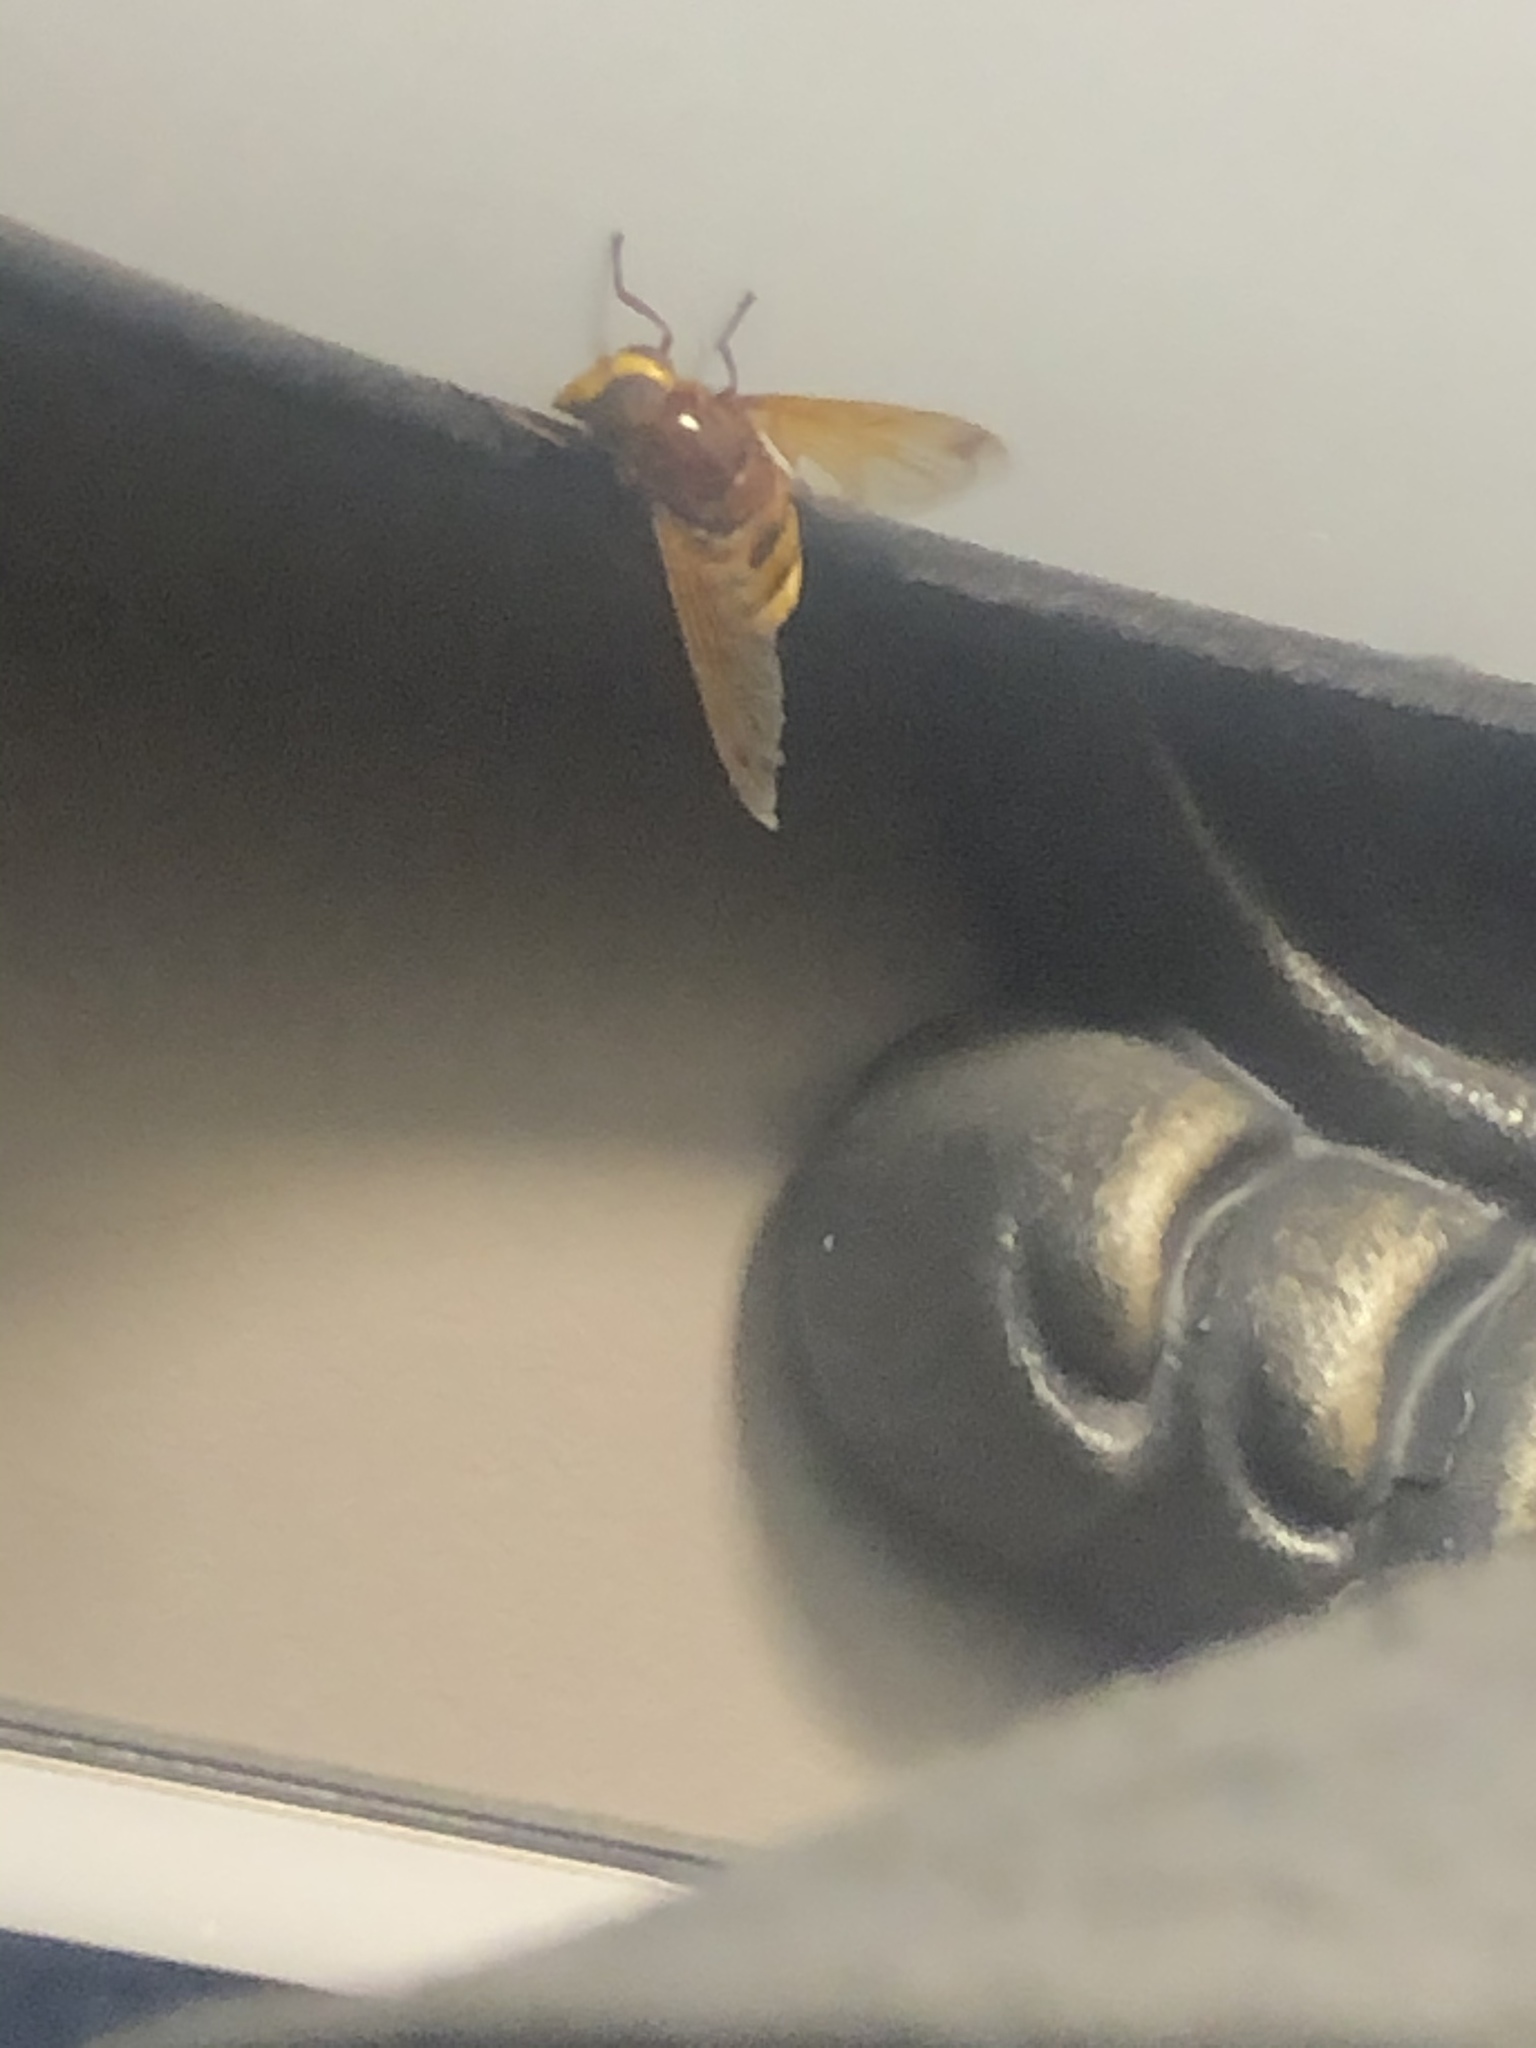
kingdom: Animalia
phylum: Arthropoda
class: Insecta
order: Diptera
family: Syrphidae
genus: Volucella
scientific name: Volucella zonaria
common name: Hornet hoverfly
